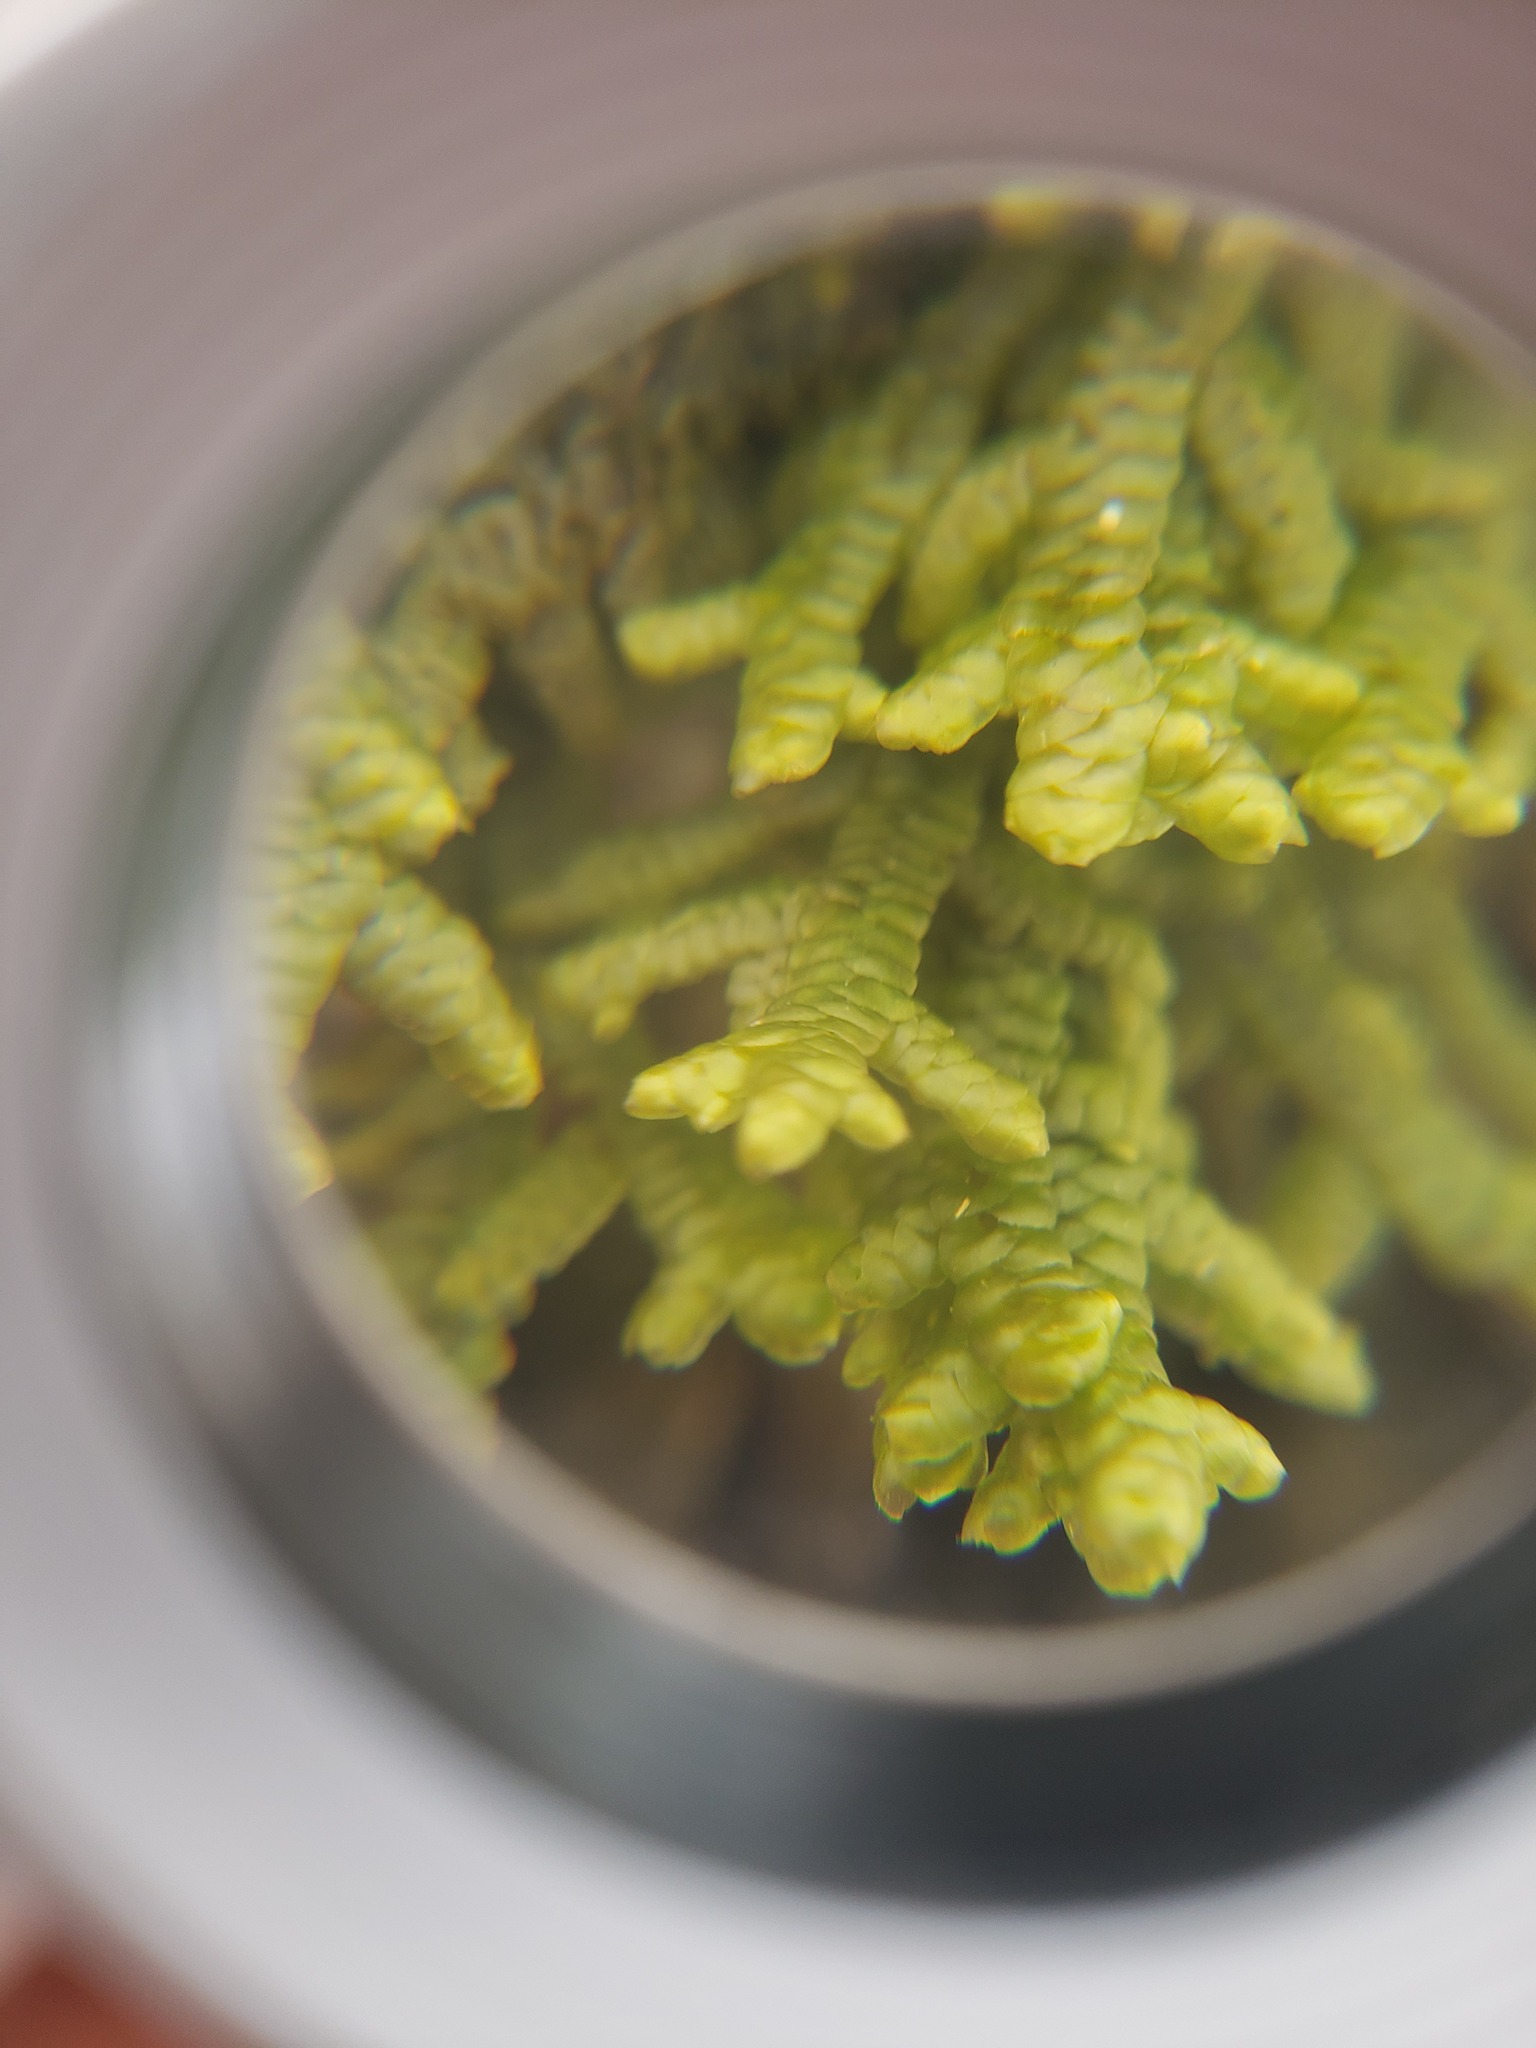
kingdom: Plantae
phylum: Marchantiophyta
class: Jungermanniopsida
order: Porellales
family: Porellaceae
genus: Porella
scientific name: Porella platyphylla
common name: Wall scalewort
